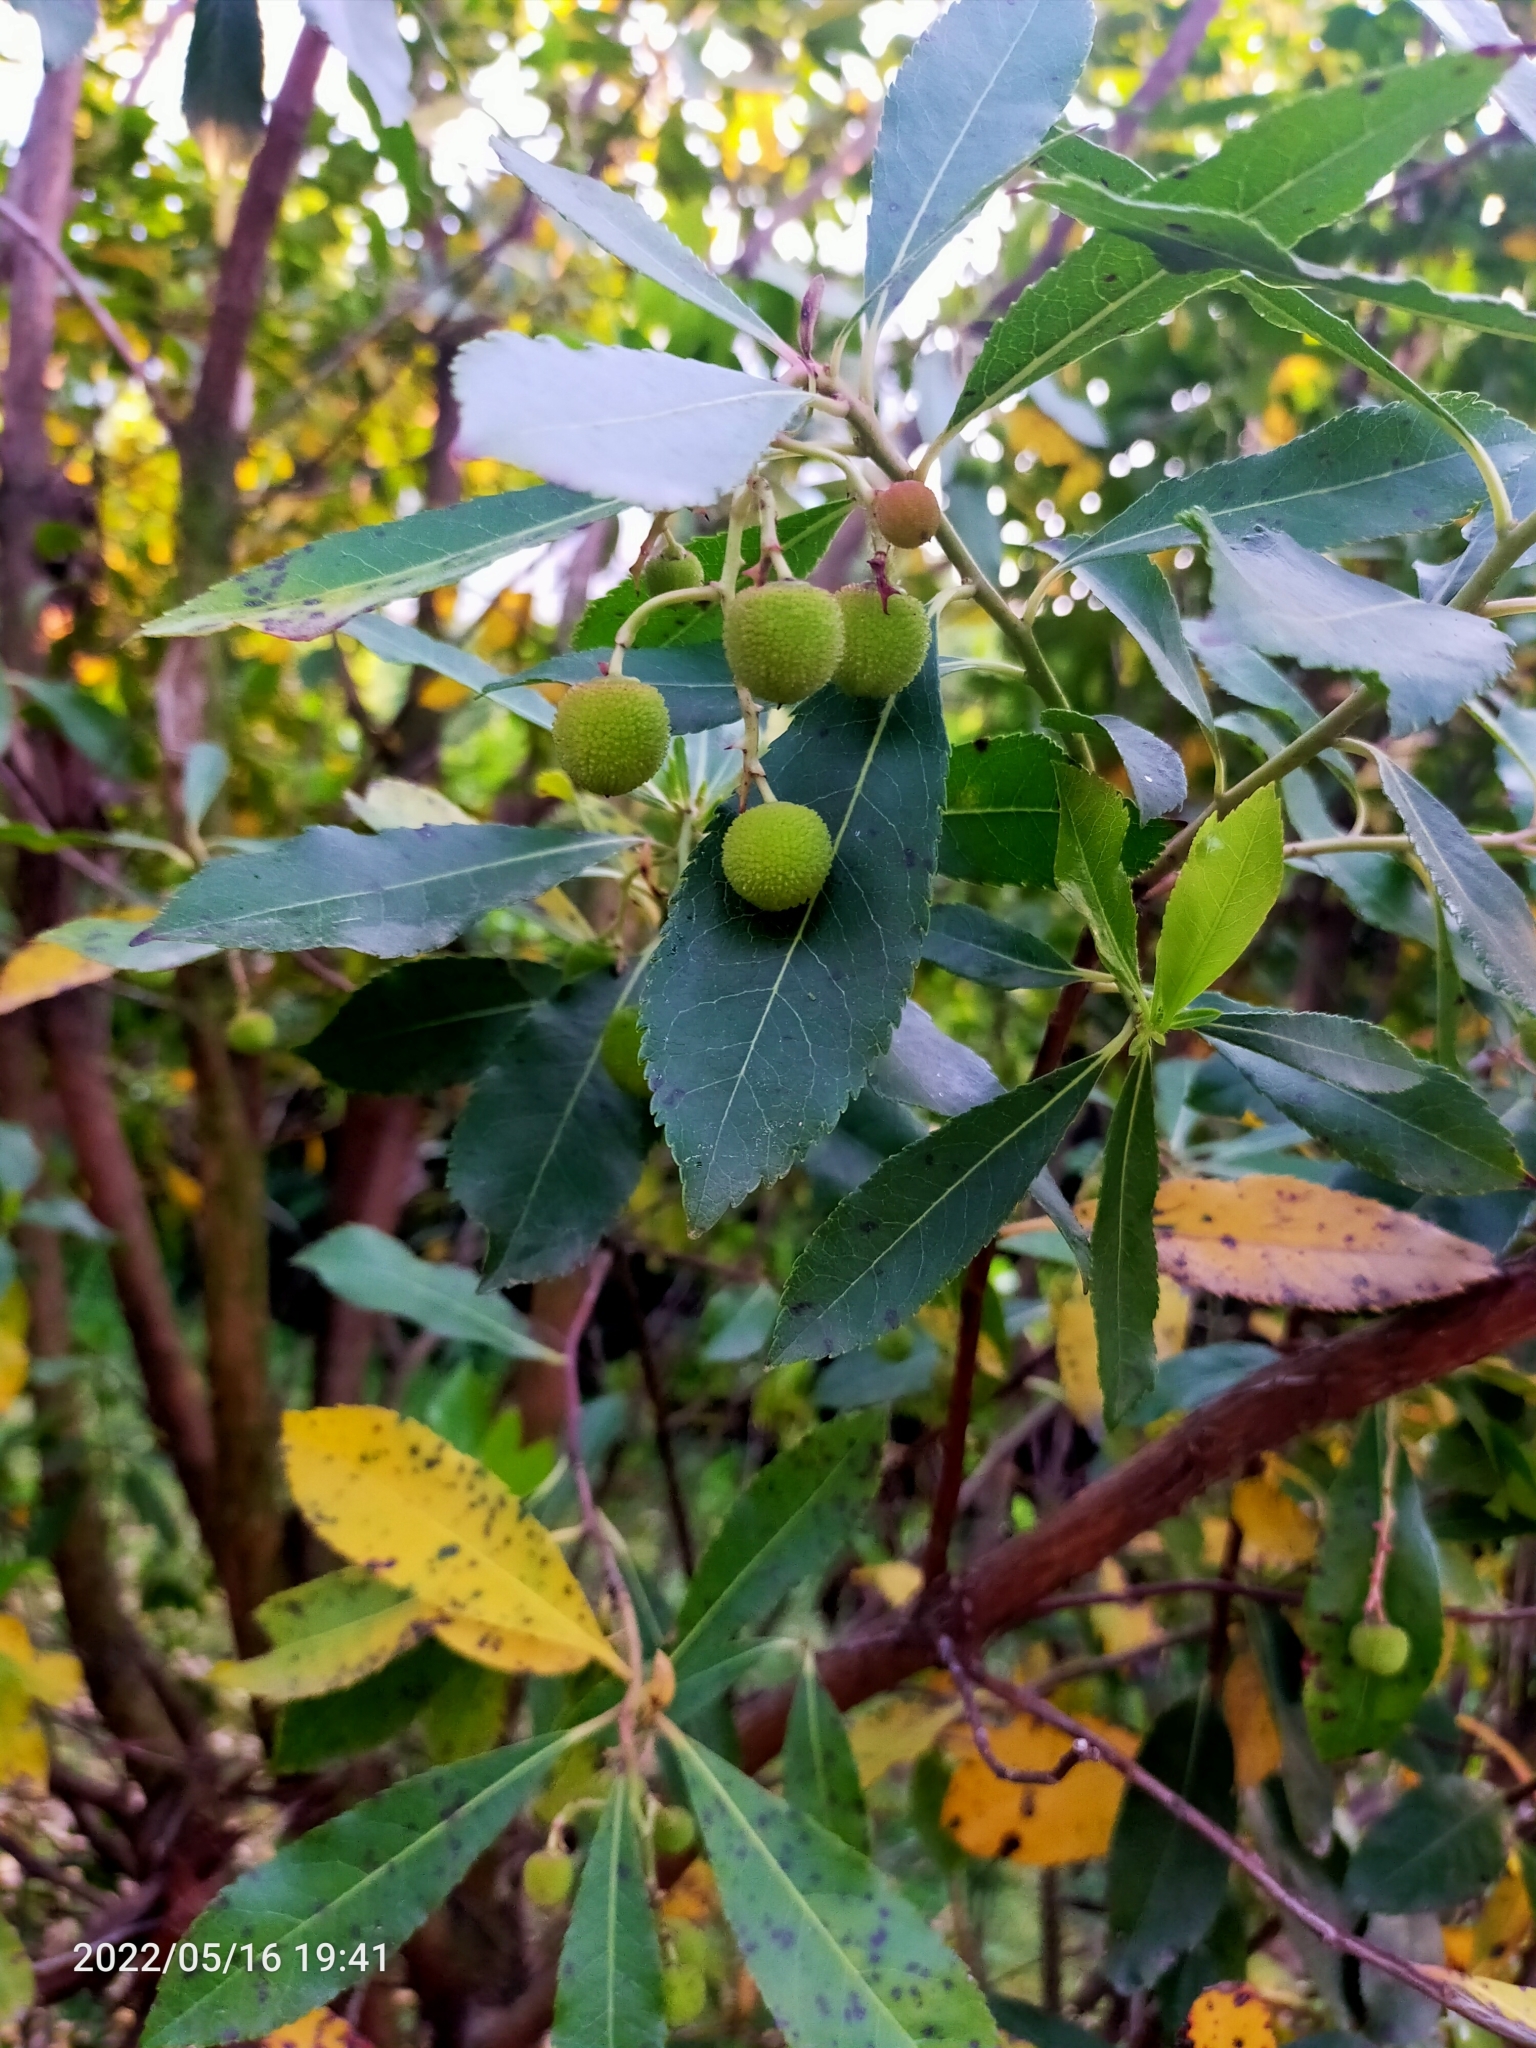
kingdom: Plantae
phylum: Tracheophyta
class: Magnoliopsida
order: Ericales
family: Ericaceae
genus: Arbutus
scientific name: Arbutus unedo
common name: Strawberry-tree
